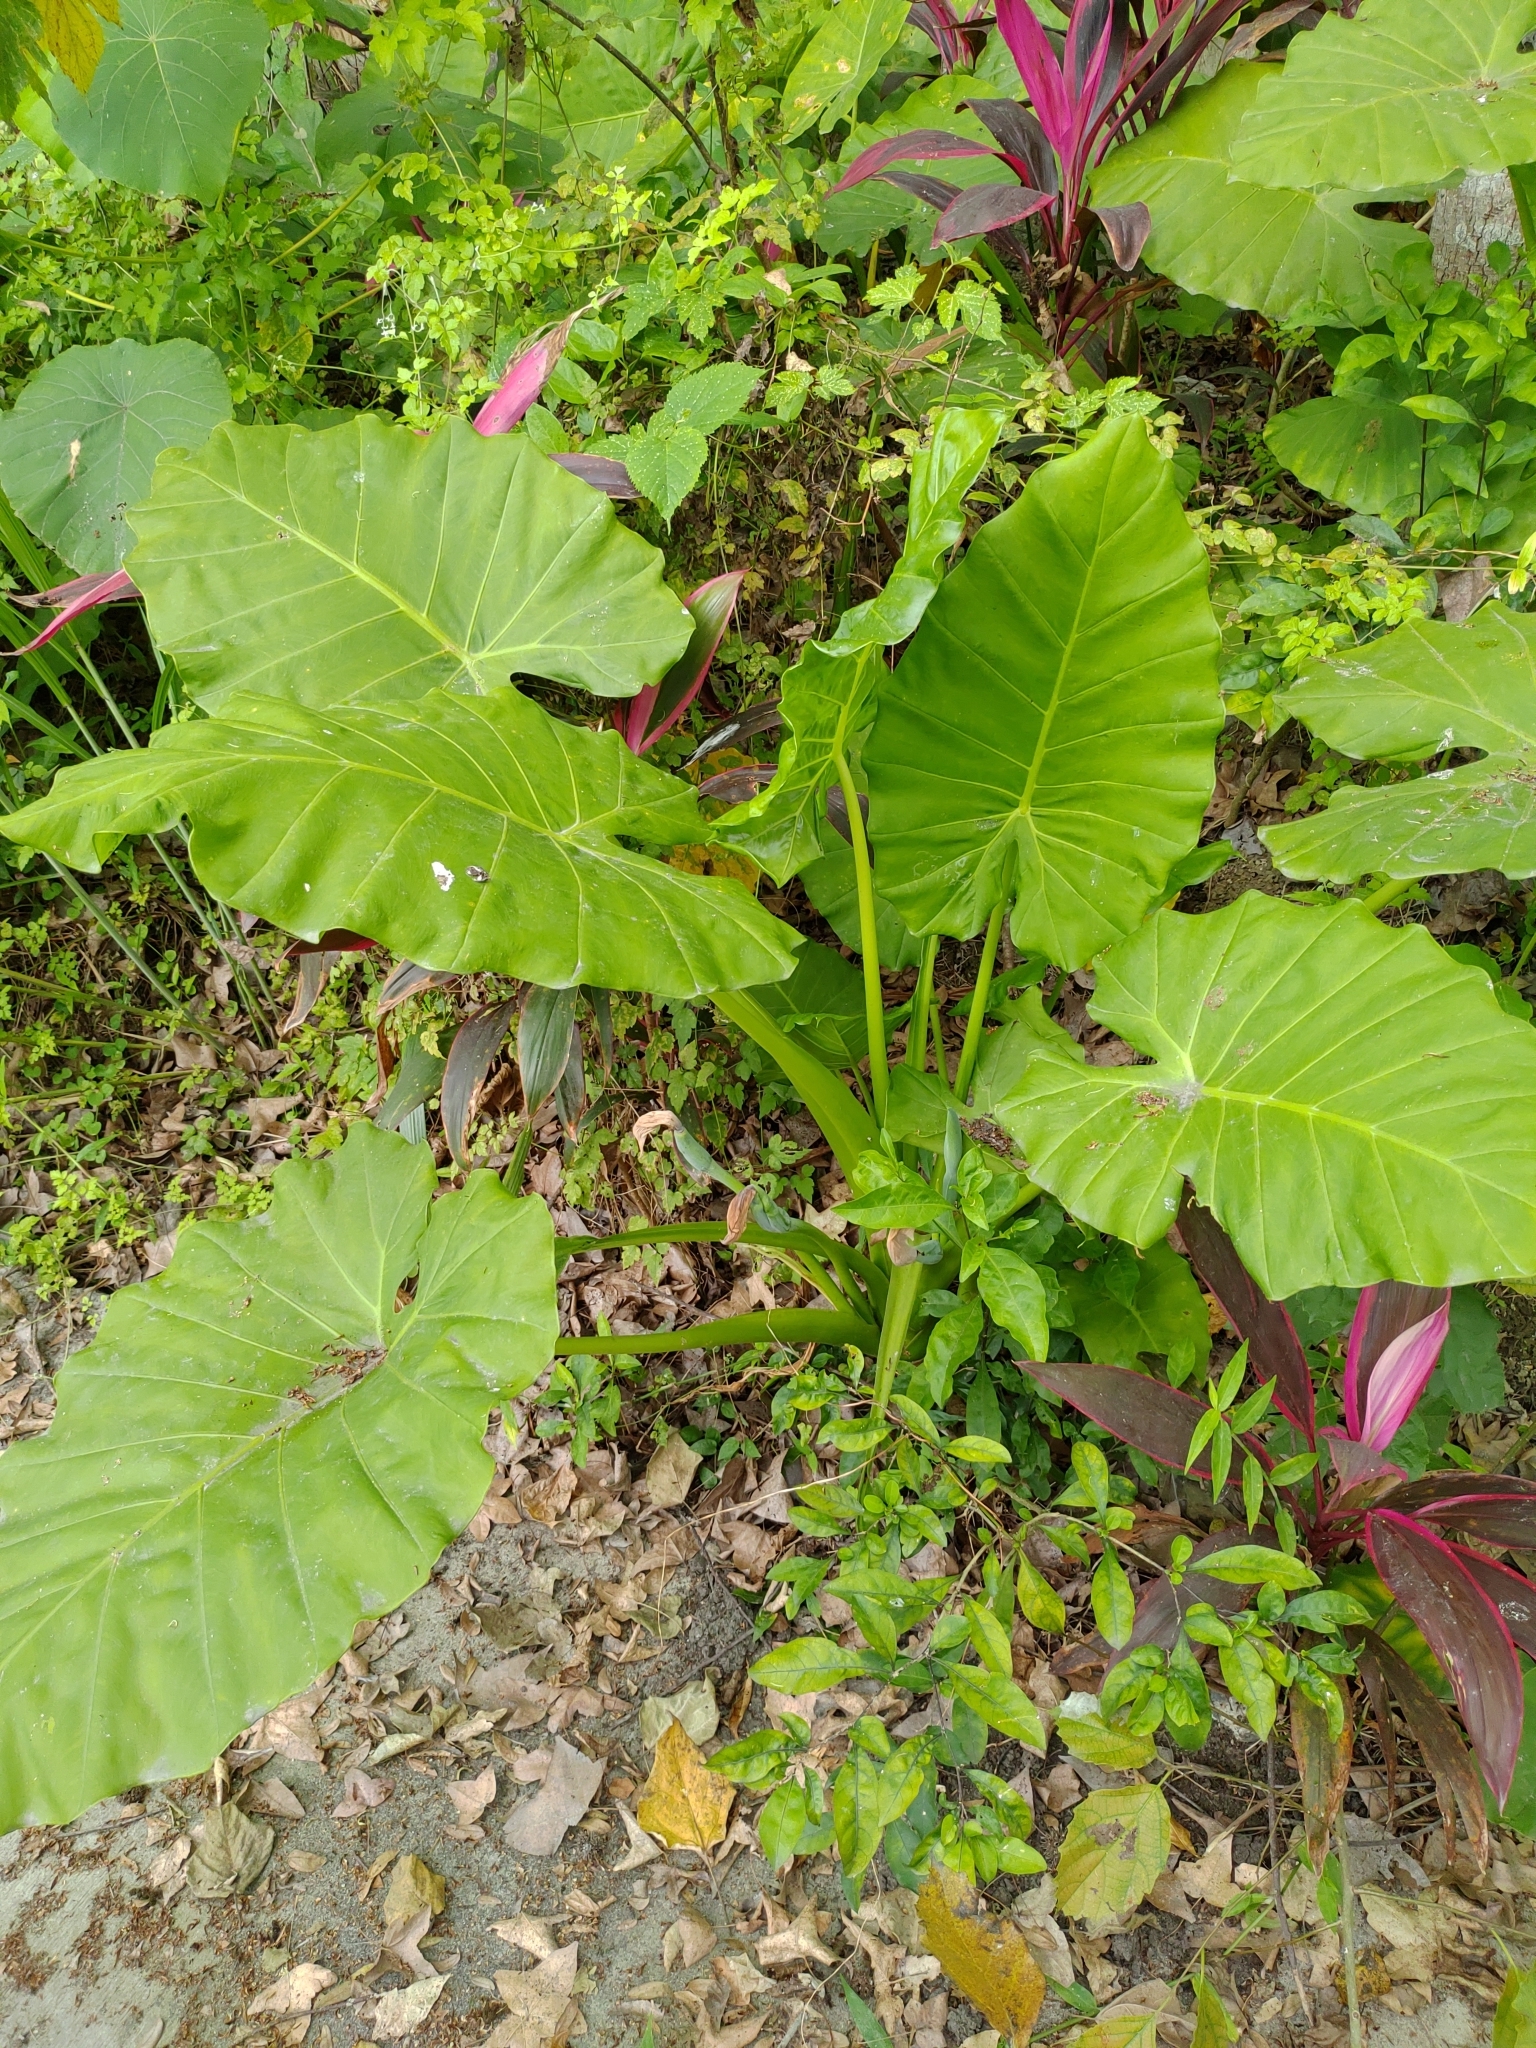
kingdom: Plantae
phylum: Tracheophyta
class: Liliopsida
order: Alismatales
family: Araceae
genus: Alocasia
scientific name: Alocasia odora
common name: Asian taro
